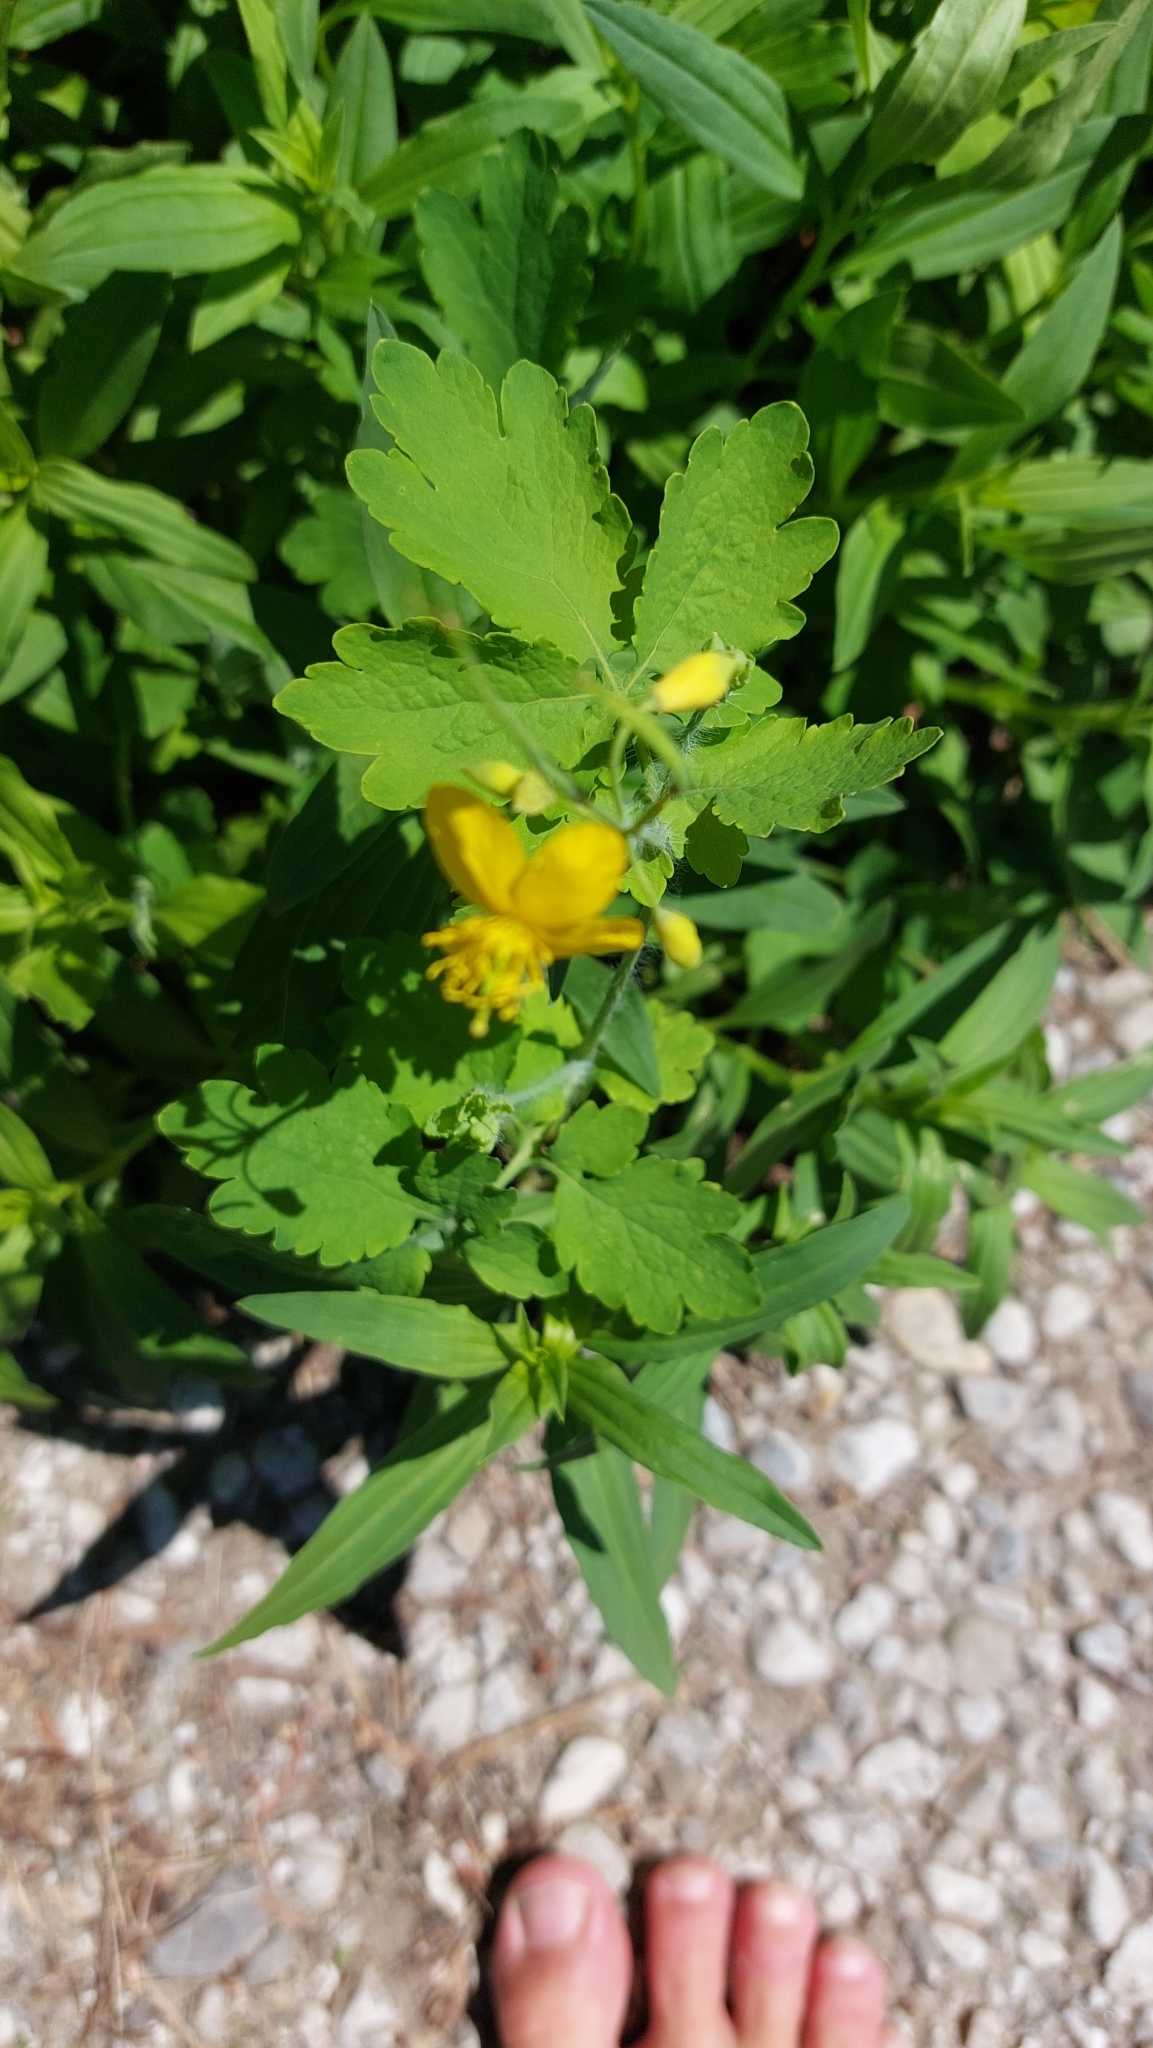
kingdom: Plantae
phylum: Tracheophyta
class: Magnoliopsida
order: Ranunculales
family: Papaveraceae
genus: Chelidonium
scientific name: Chelidonium majus
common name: Greater celandine
